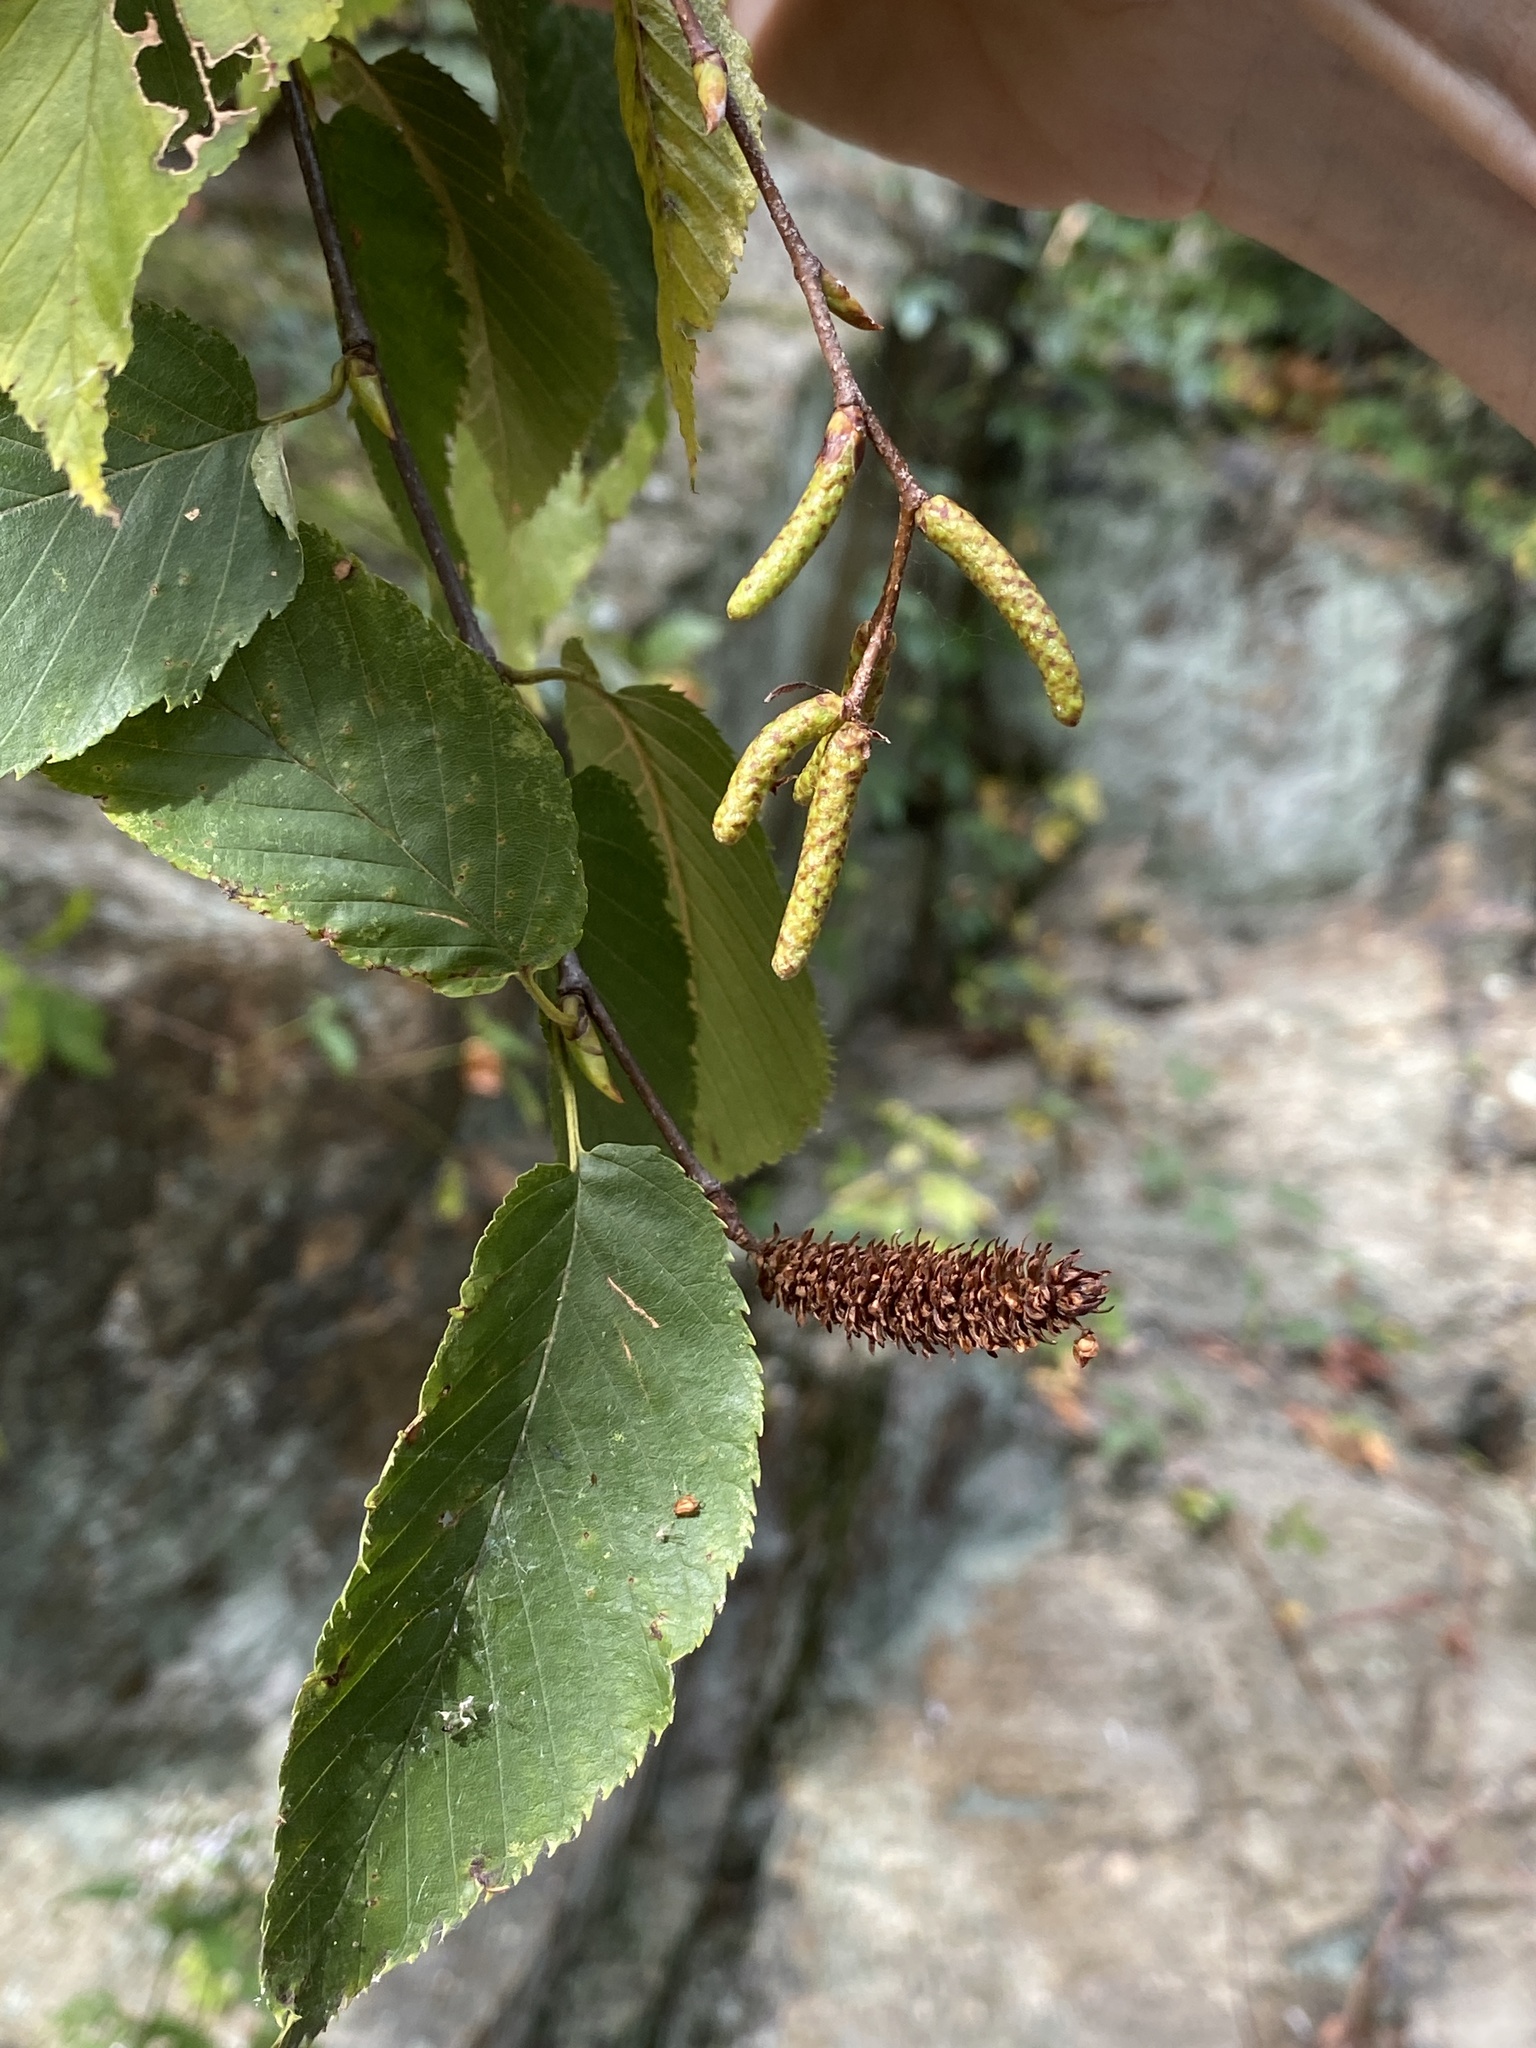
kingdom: Plantae
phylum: Tracheophyta
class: Magnoliopsida
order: Fagales
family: Betulaceae
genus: Betula
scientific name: Betula lenta
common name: Black birch
